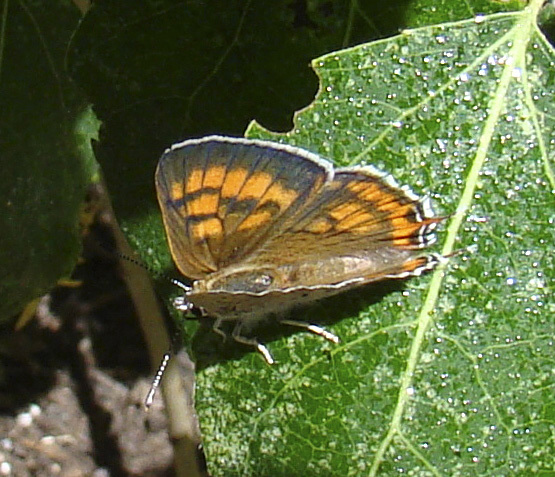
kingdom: Animalia
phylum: Arthropoda
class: Insecta
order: Lepidoptera
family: Lycaenidae
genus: Tharsalea
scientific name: Tharsalea arota
